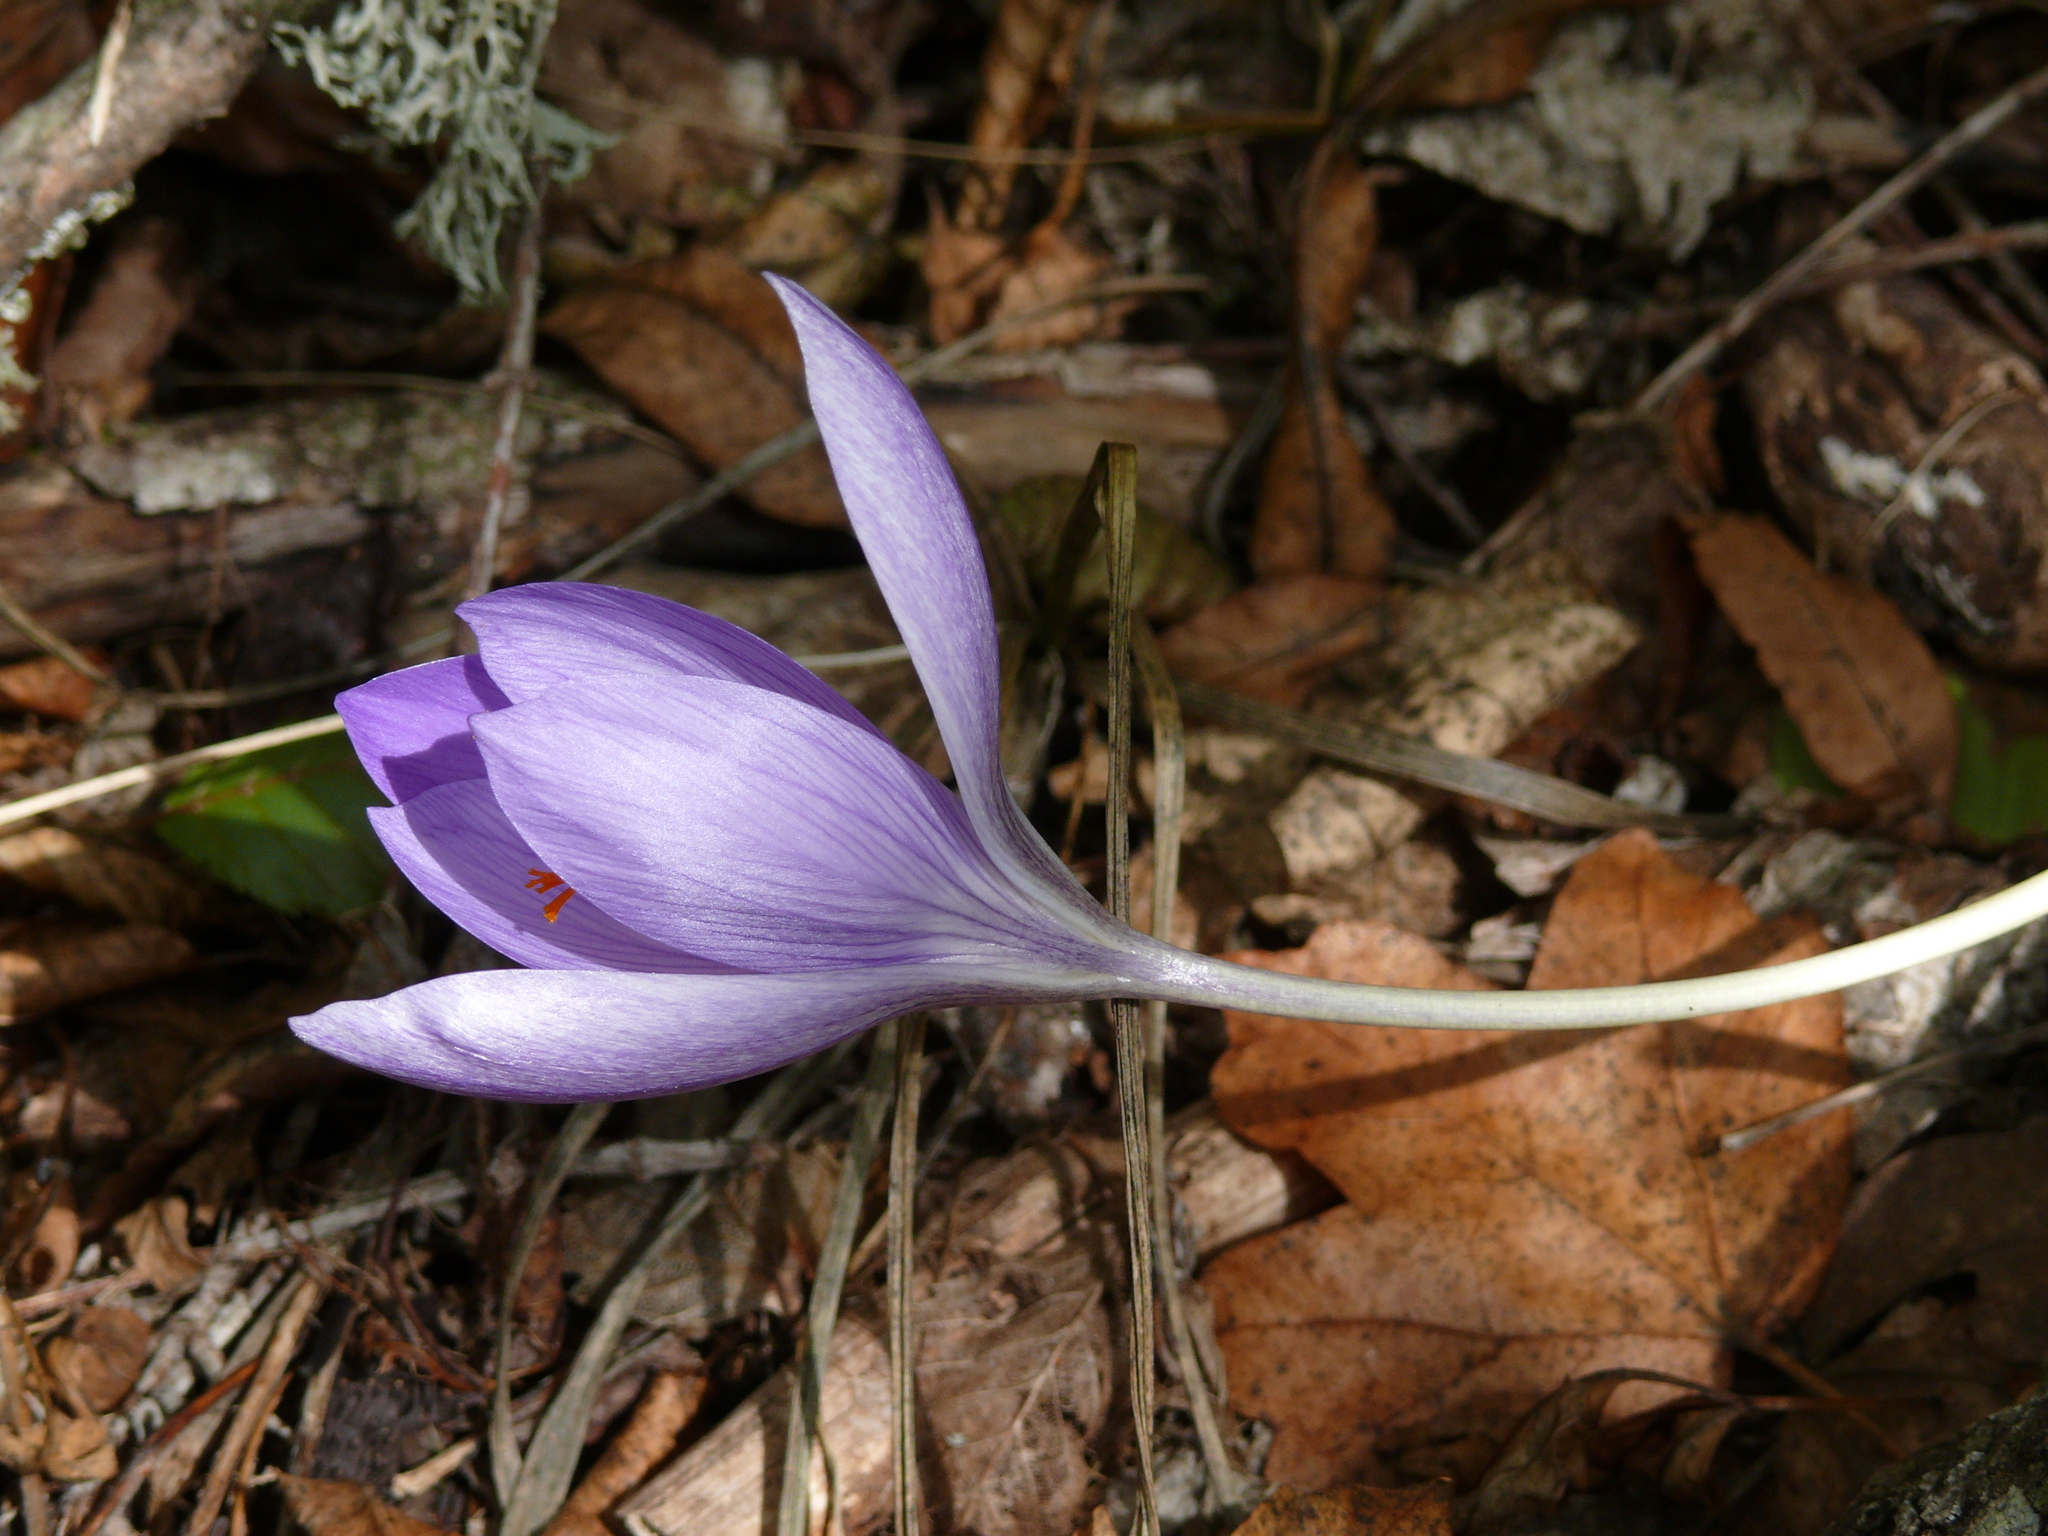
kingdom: Plantae
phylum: Tracheophyta
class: Liliopsida
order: Asparagales
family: Iridaceae
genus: Crocus
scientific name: Crocus speciosus
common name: Bieberstein's crocus
